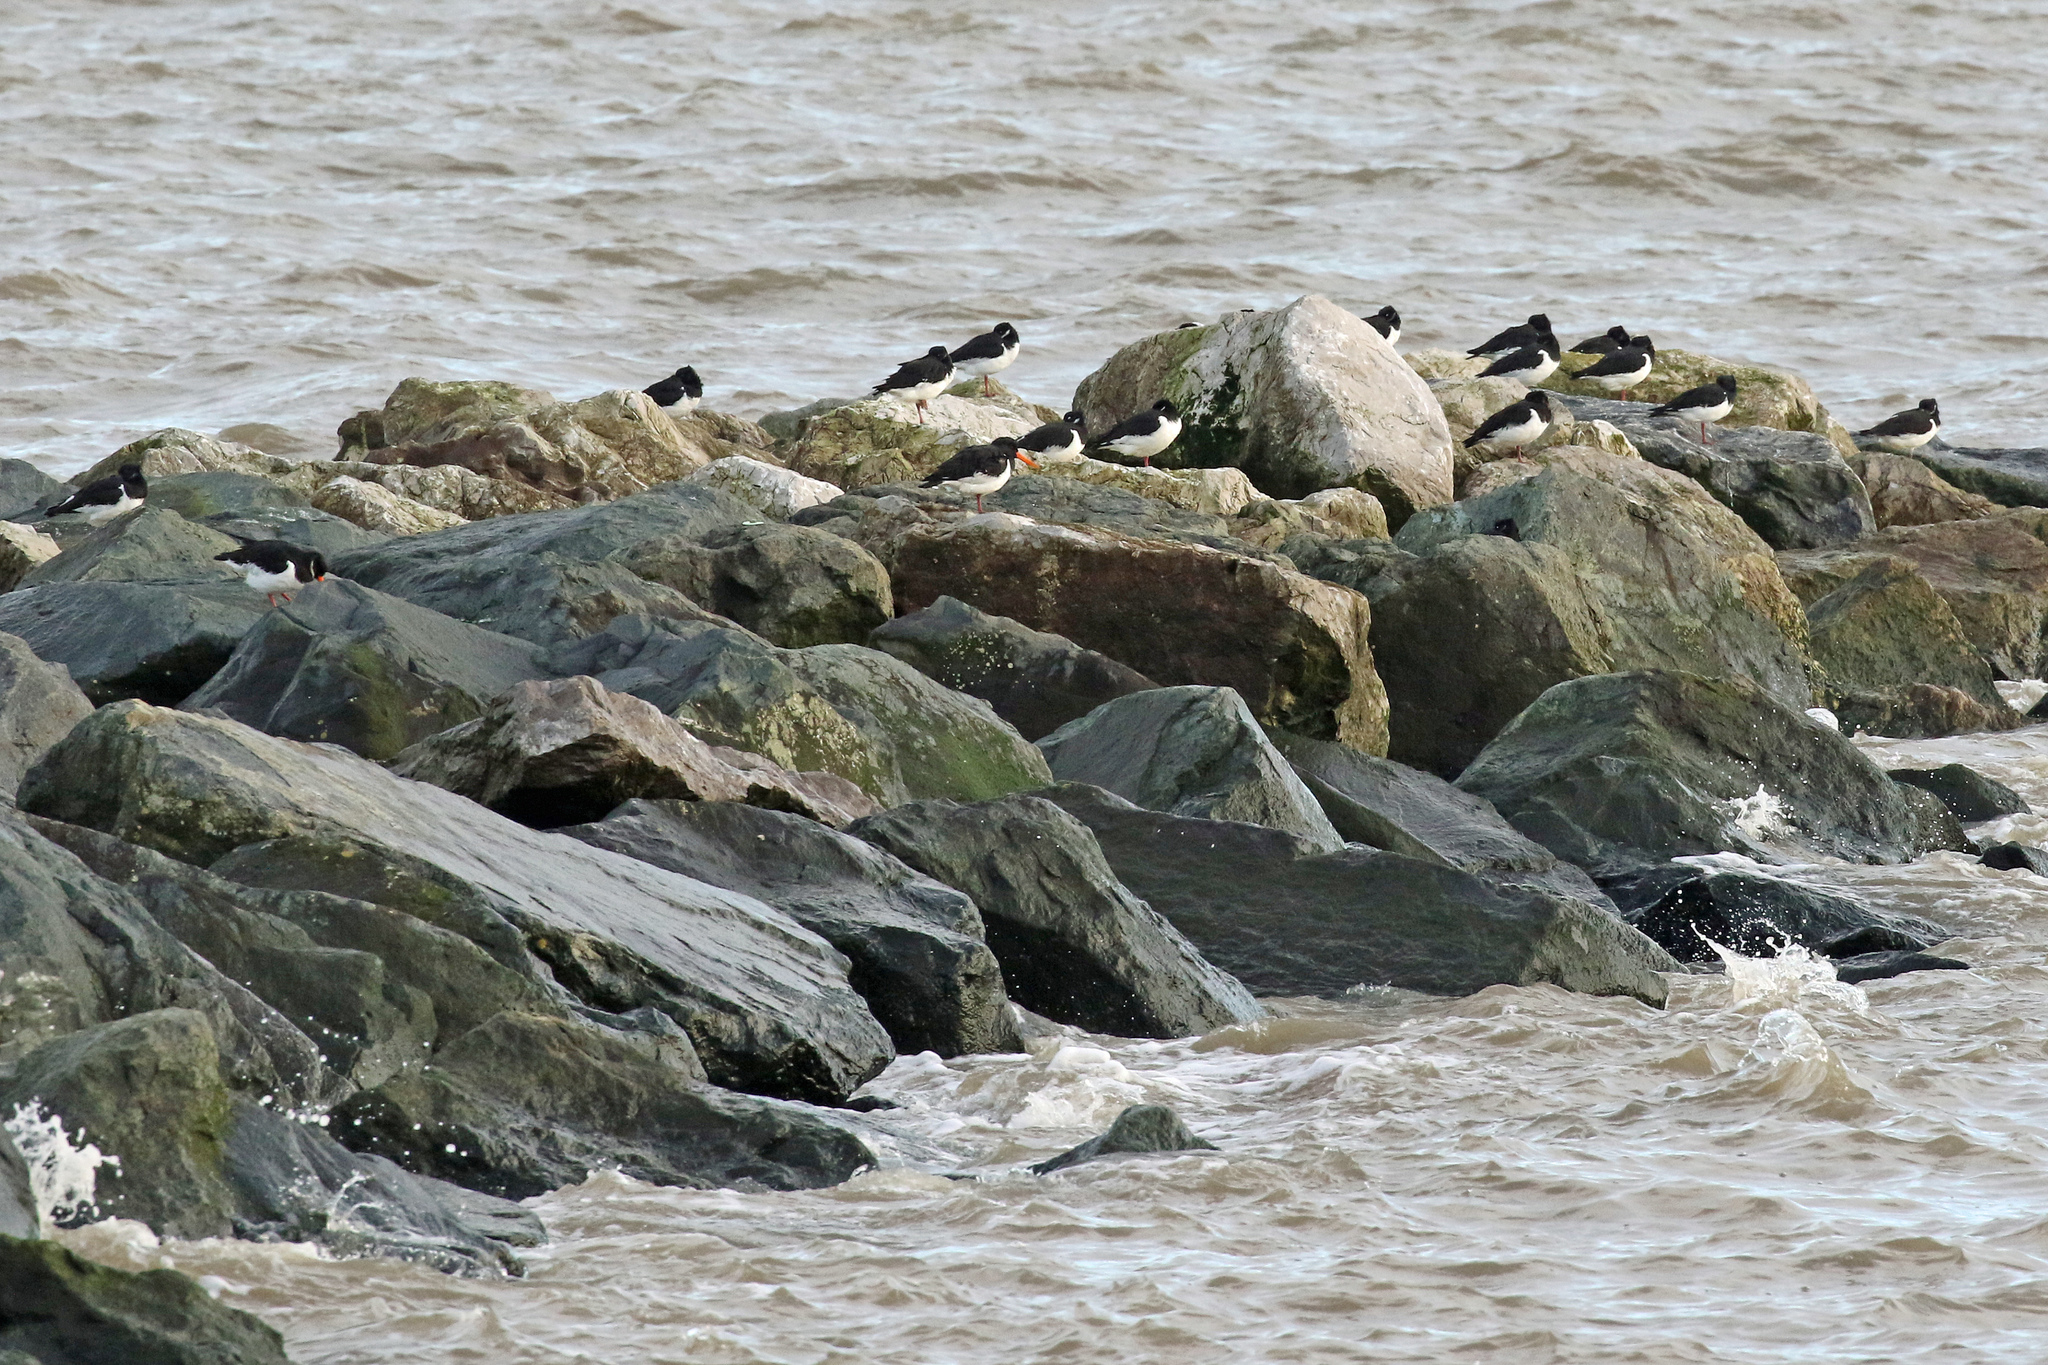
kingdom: Animalia
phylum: Chordata
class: Aves
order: Charadriiformes
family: Haematopodidae
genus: Haematopus
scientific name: Haematopus ostralegus
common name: Eurasian oystercatcher
